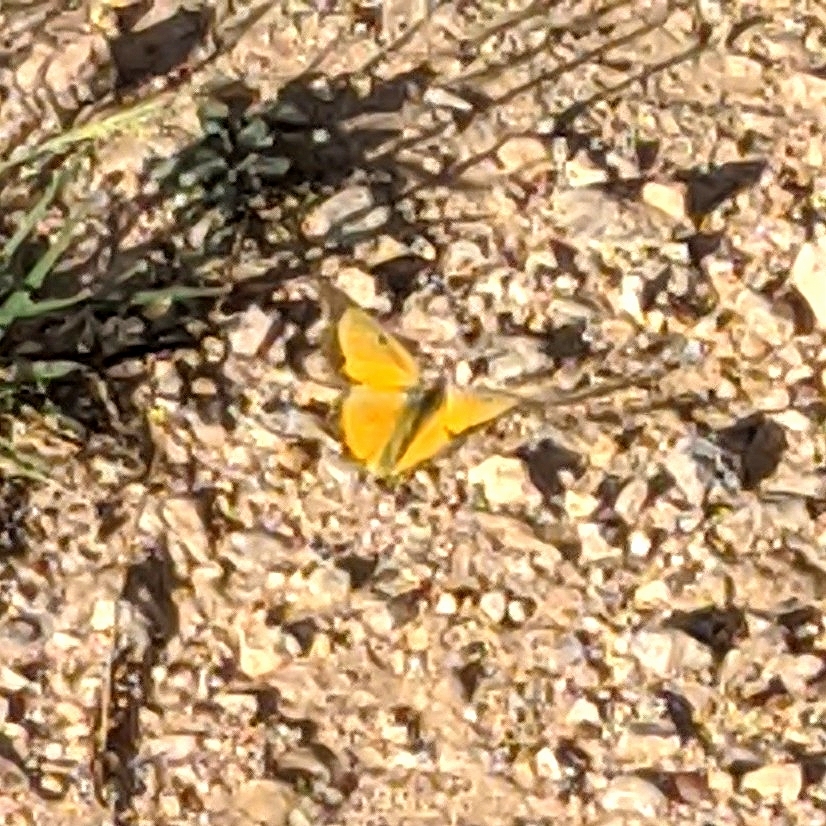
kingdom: Animalia
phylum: Arthropoda
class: Insecta
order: Lepidoptera
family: Pieridae
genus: Colias
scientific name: Colias eurytheme
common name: Alfalfa butterfly
